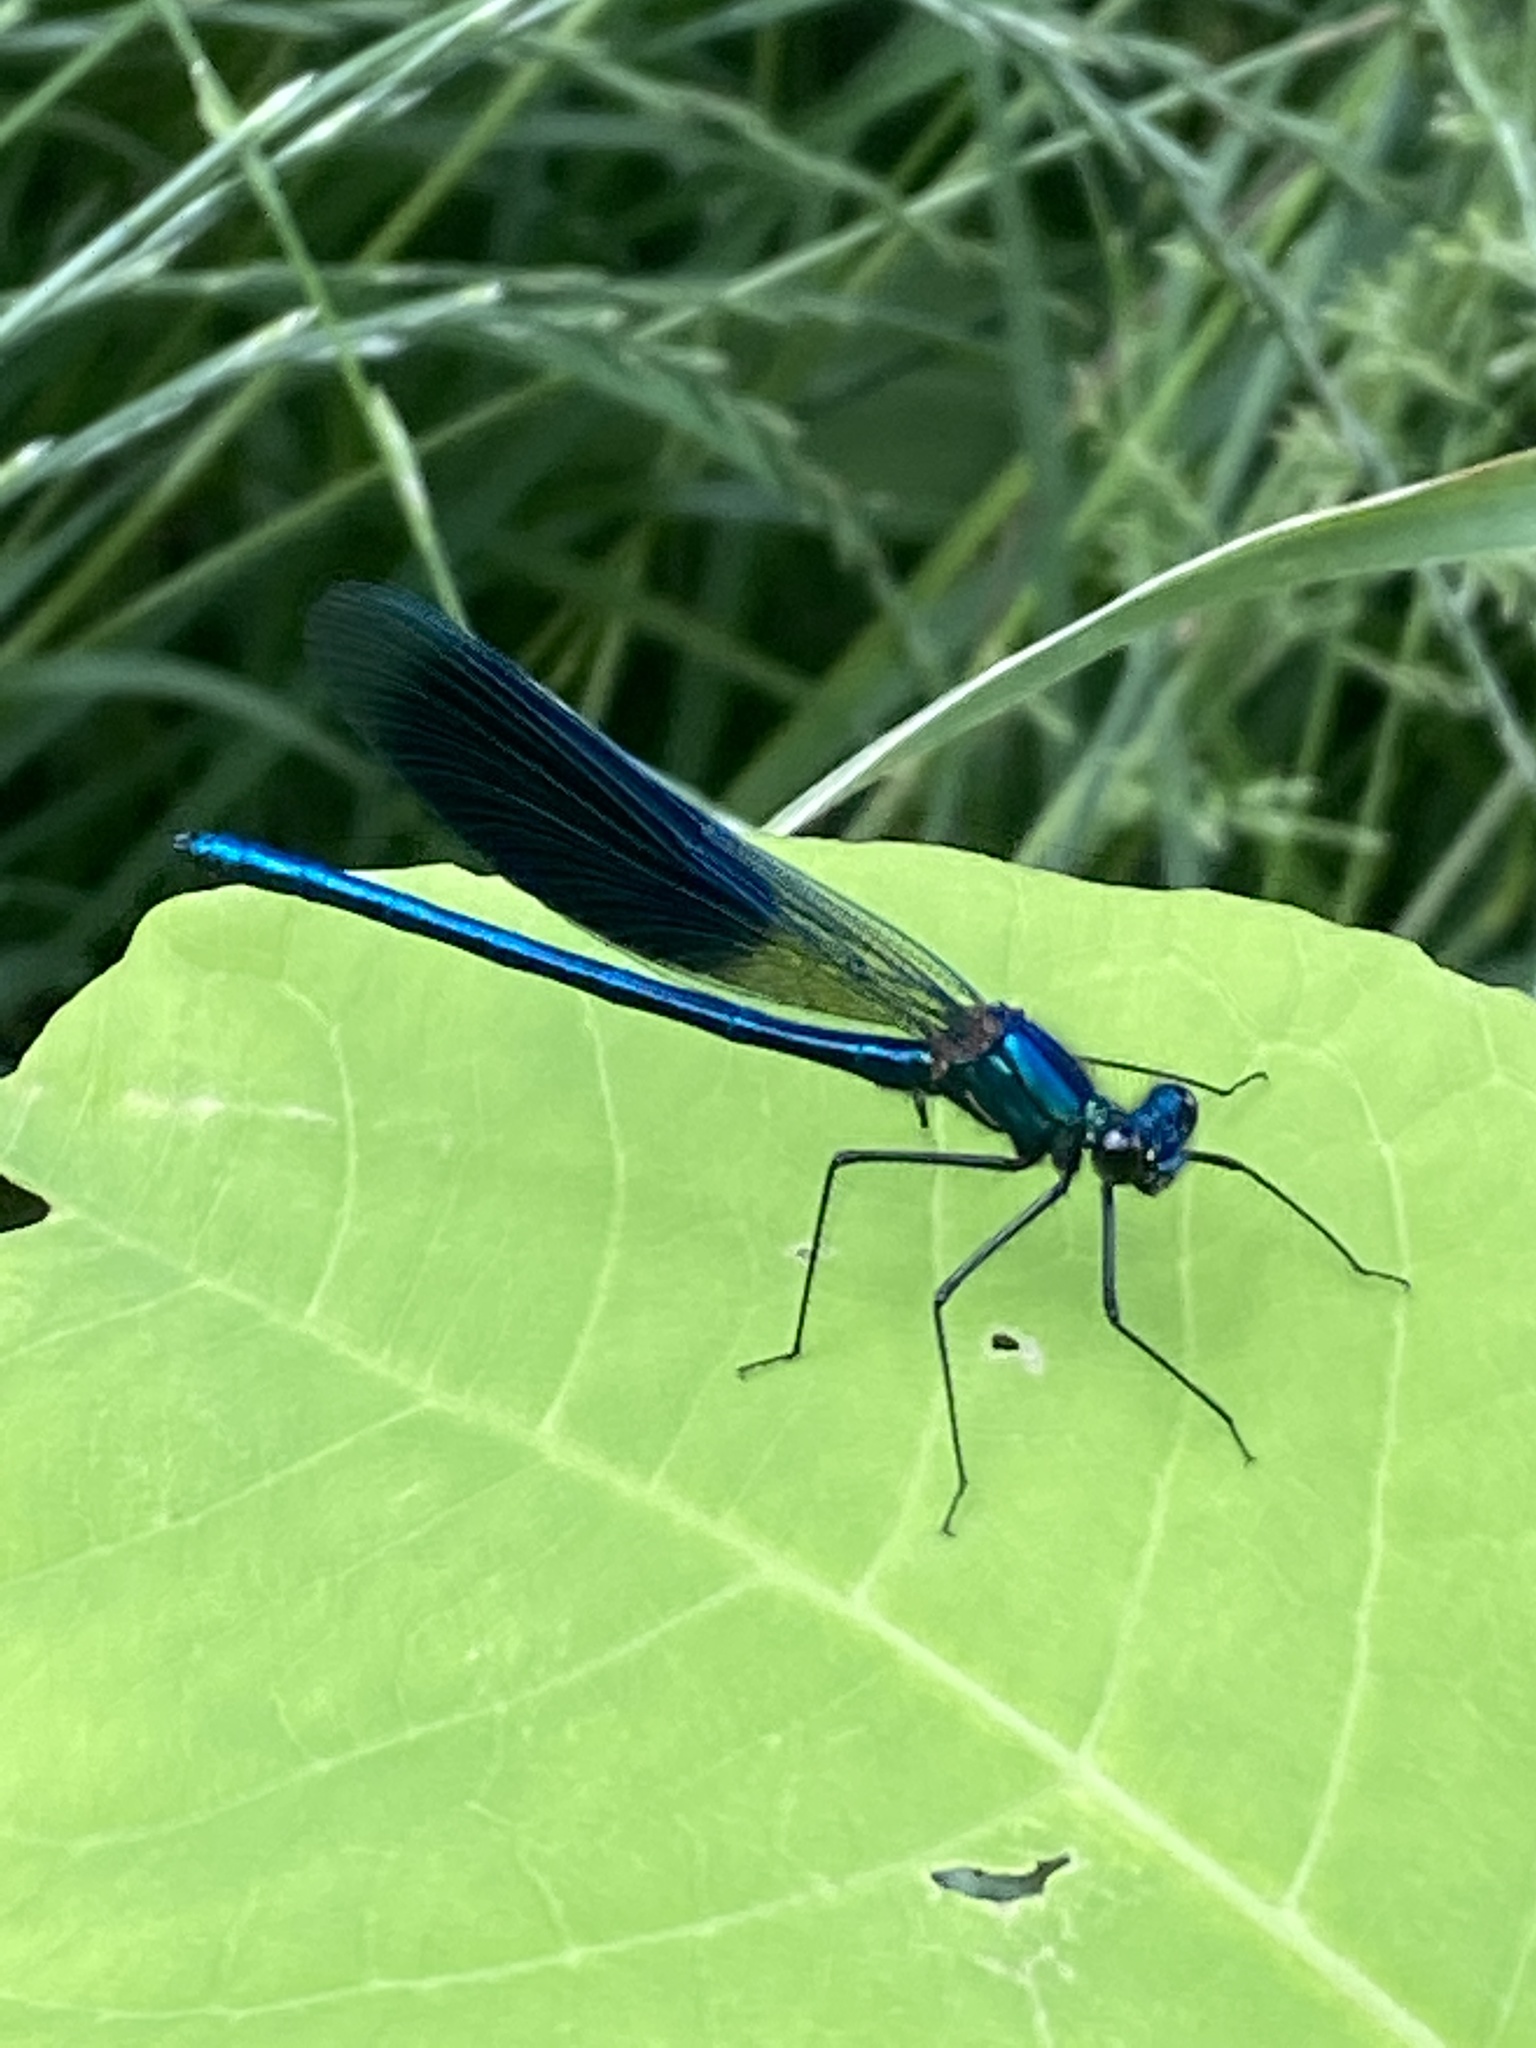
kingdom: Animalia
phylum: Arthropoda
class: Insecta
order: Odonata
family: Calopterygidae
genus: Calopteryx
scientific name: Calopteryx splendens
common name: Banded demoiselle
